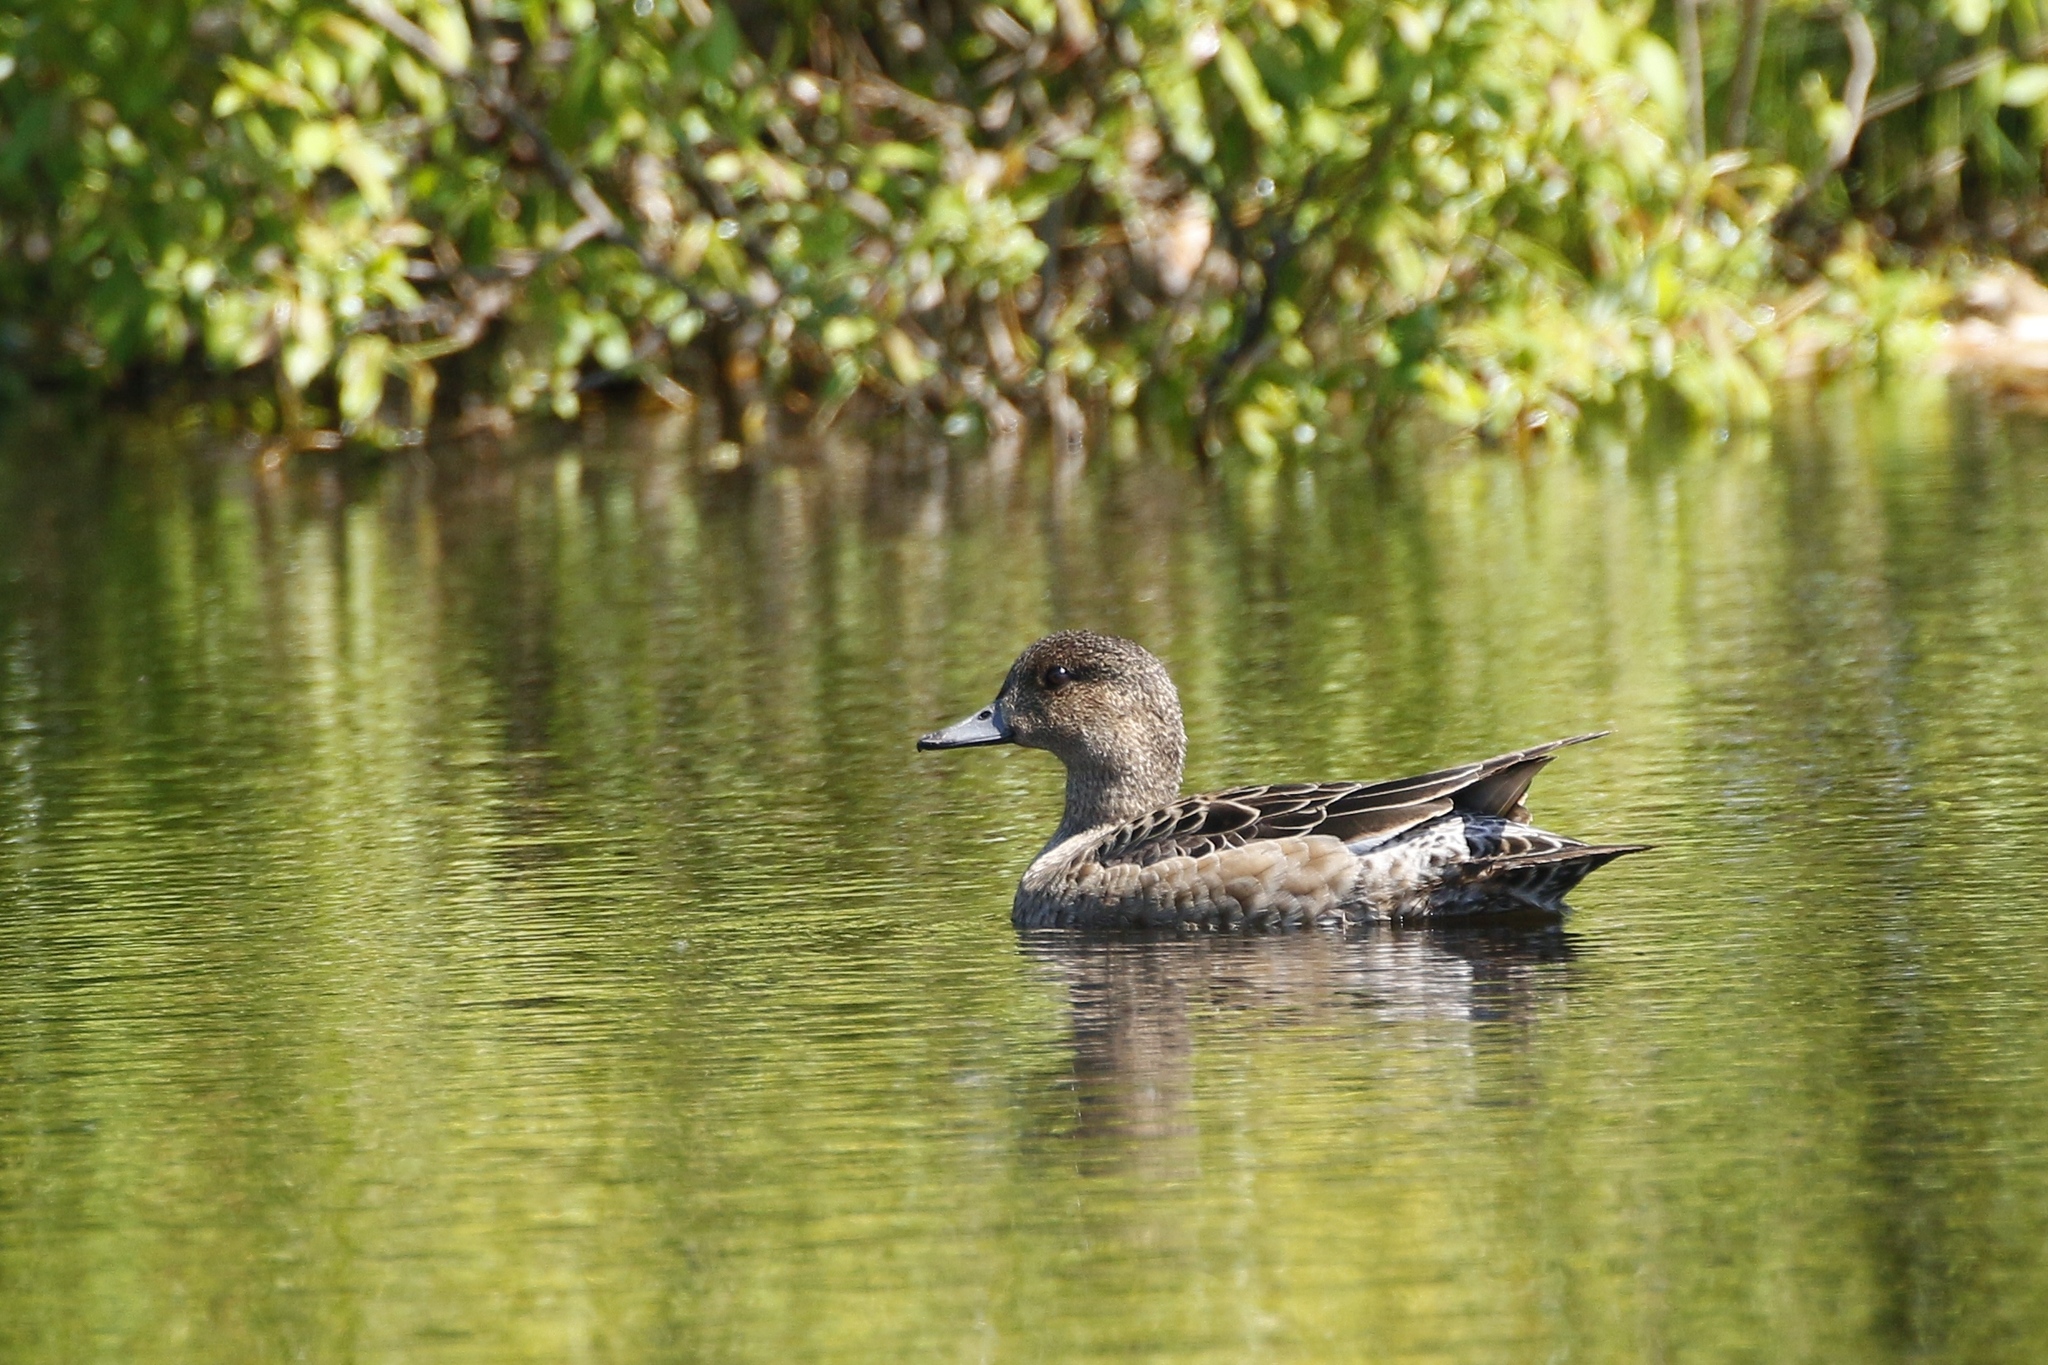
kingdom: Animalia
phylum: Chordata
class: Aves
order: Anseriformes
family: Anatidae
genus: Mareca
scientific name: Mareca penelope
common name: Eurasian wigeon
